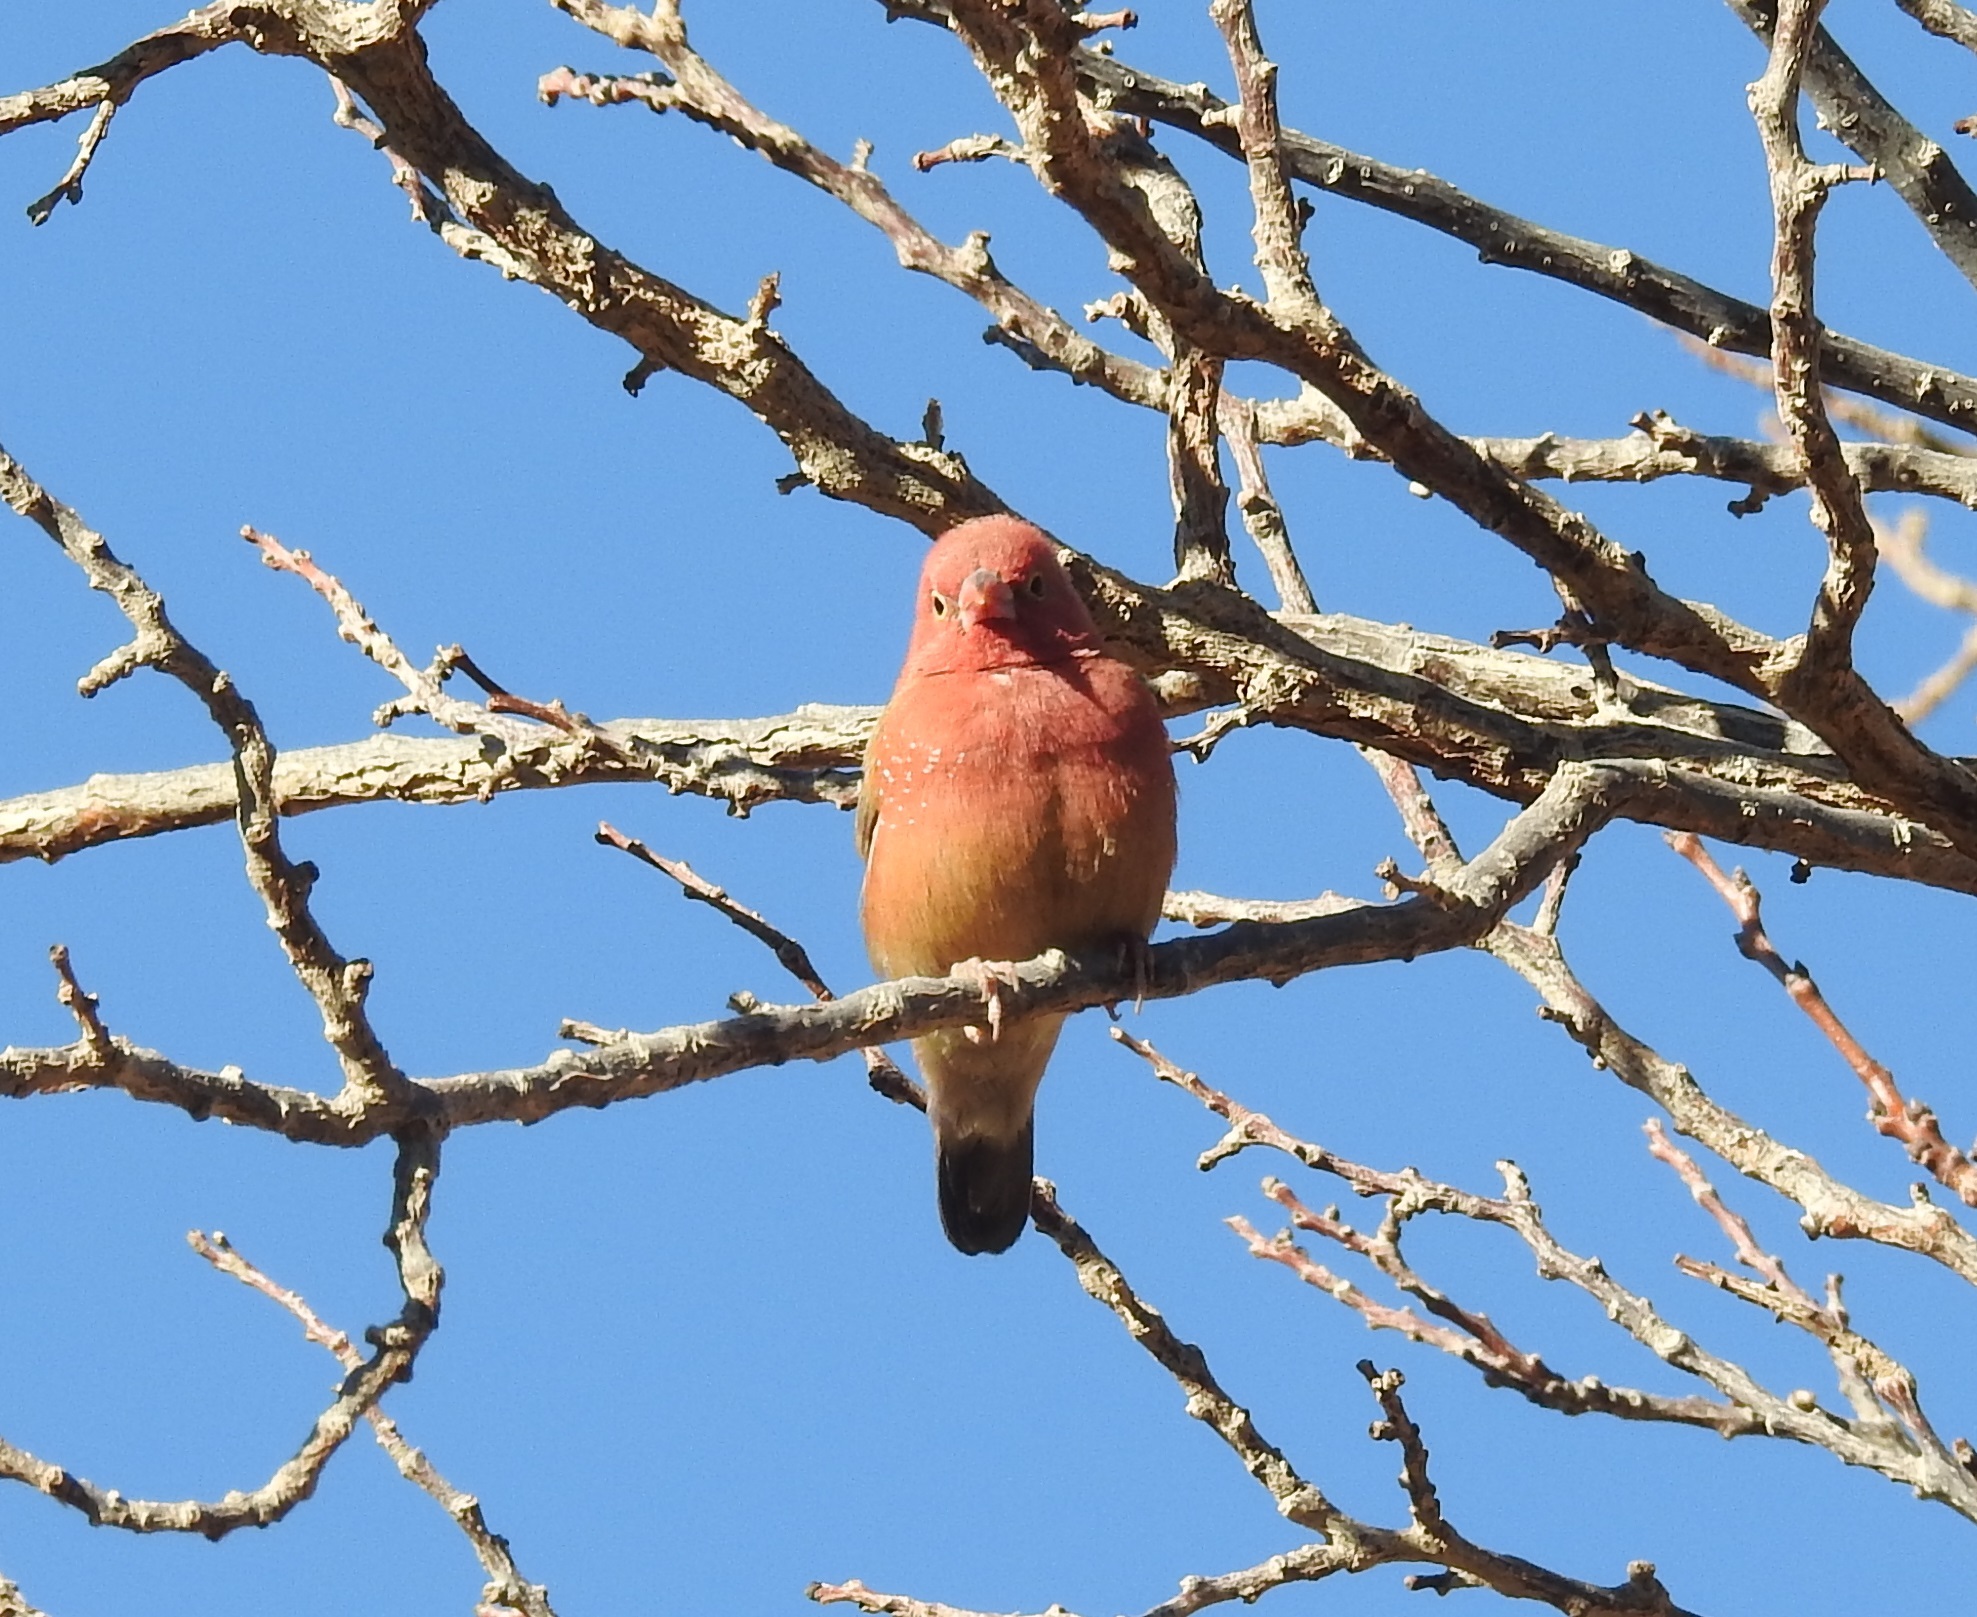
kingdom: Animalia
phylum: Chordata
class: Aves
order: Passeriformes
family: Estrildidae
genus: Lagonosticta
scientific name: Lagonosticta senegala
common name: Red-billed firefinch
